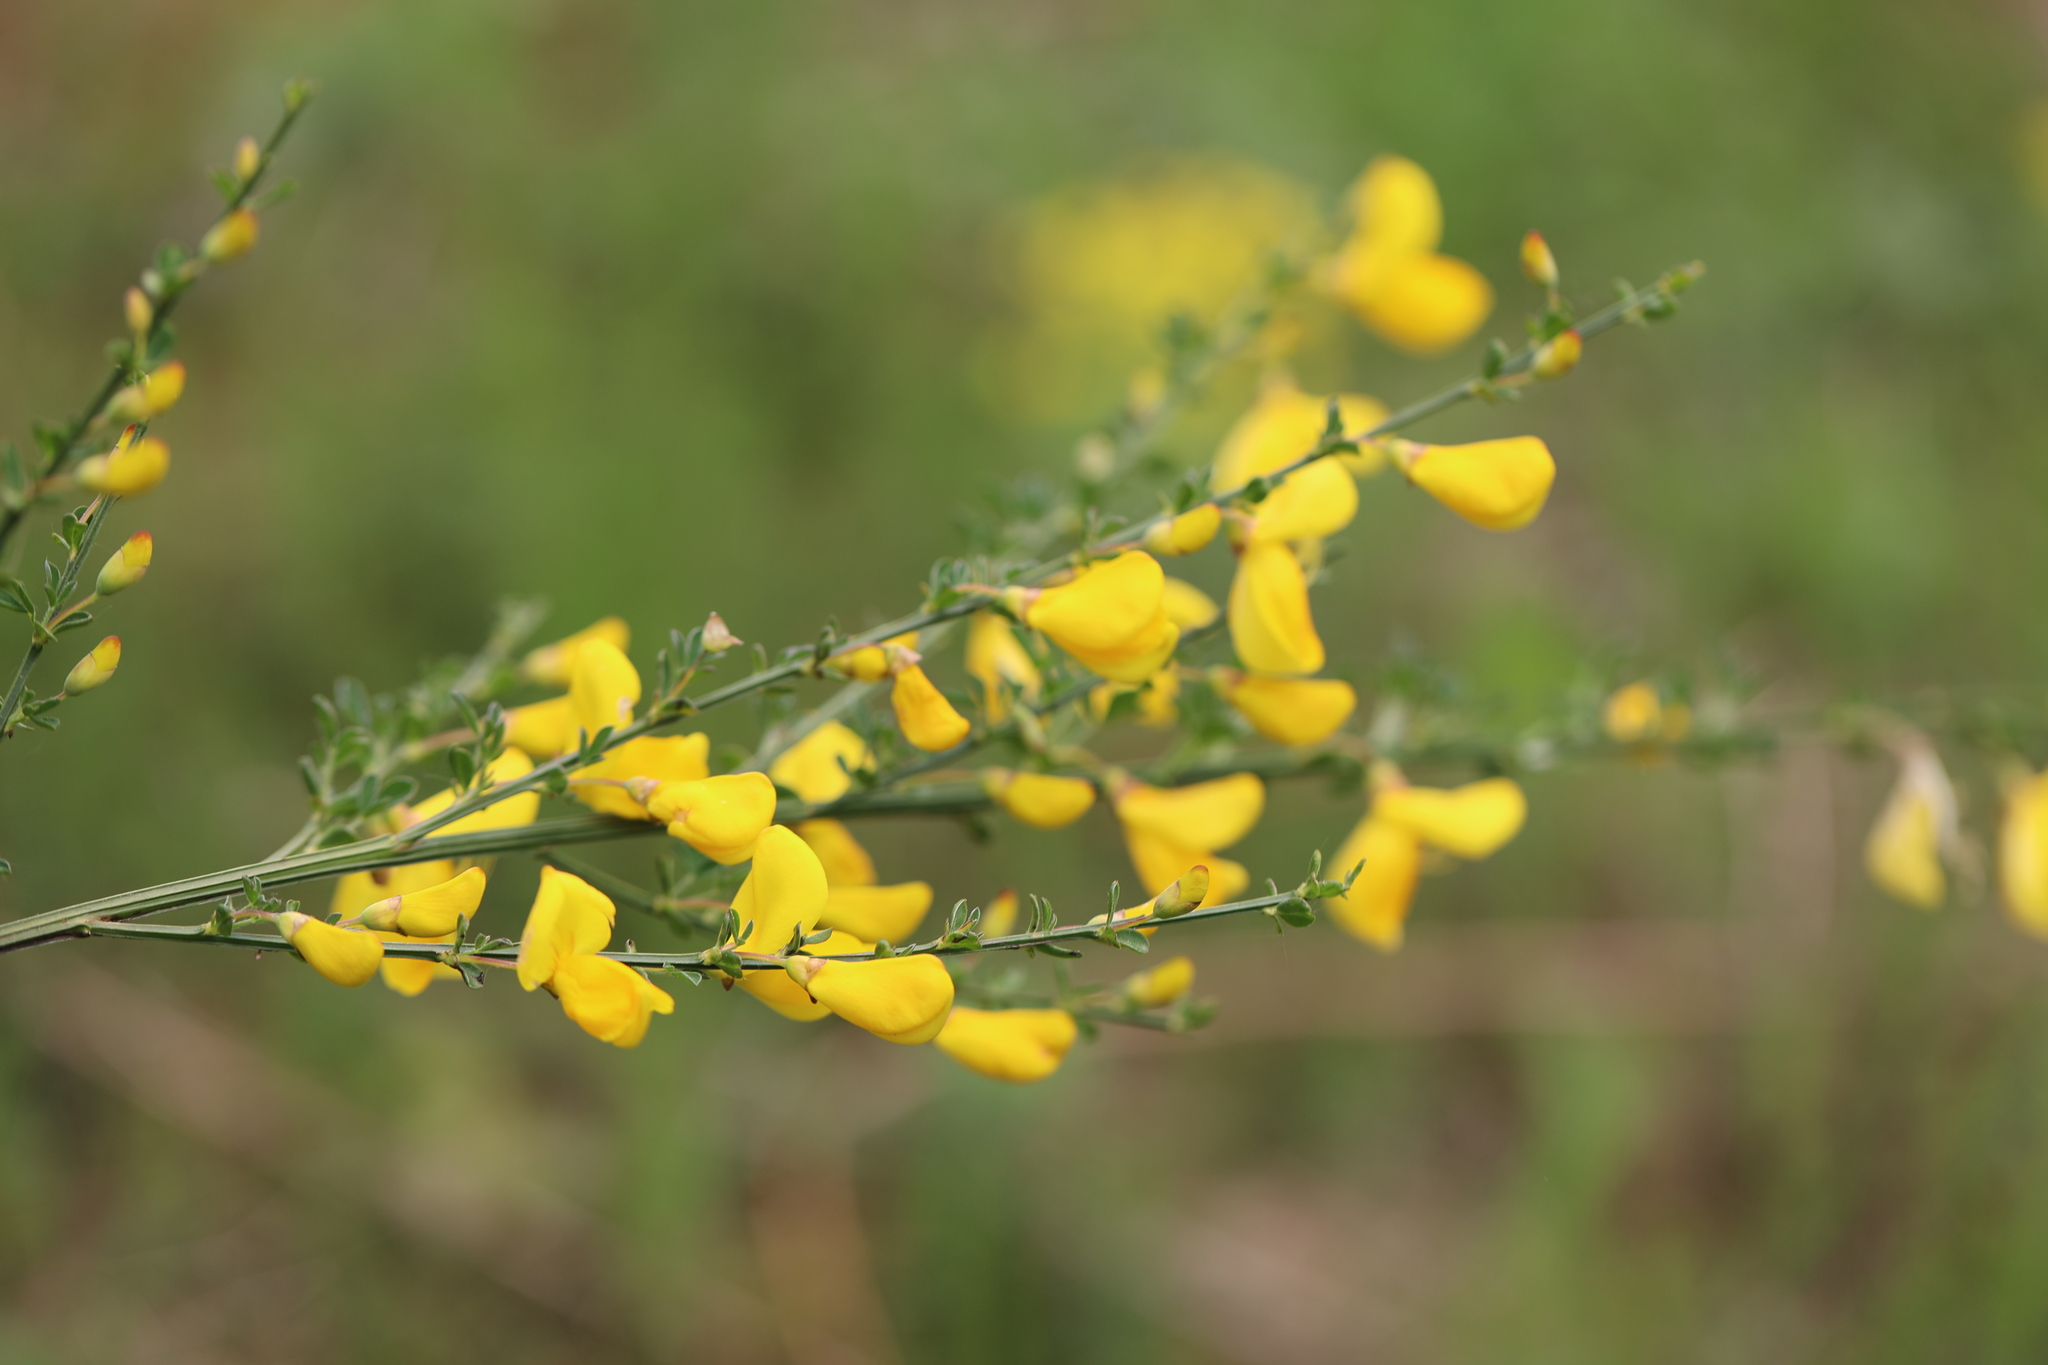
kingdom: Plantae
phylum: Tracheophyta
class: Magnoliopsida
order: Fabales
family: Fabaceae
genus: Cytisus
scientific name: Cytisus scoparius
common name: Scotch broom
